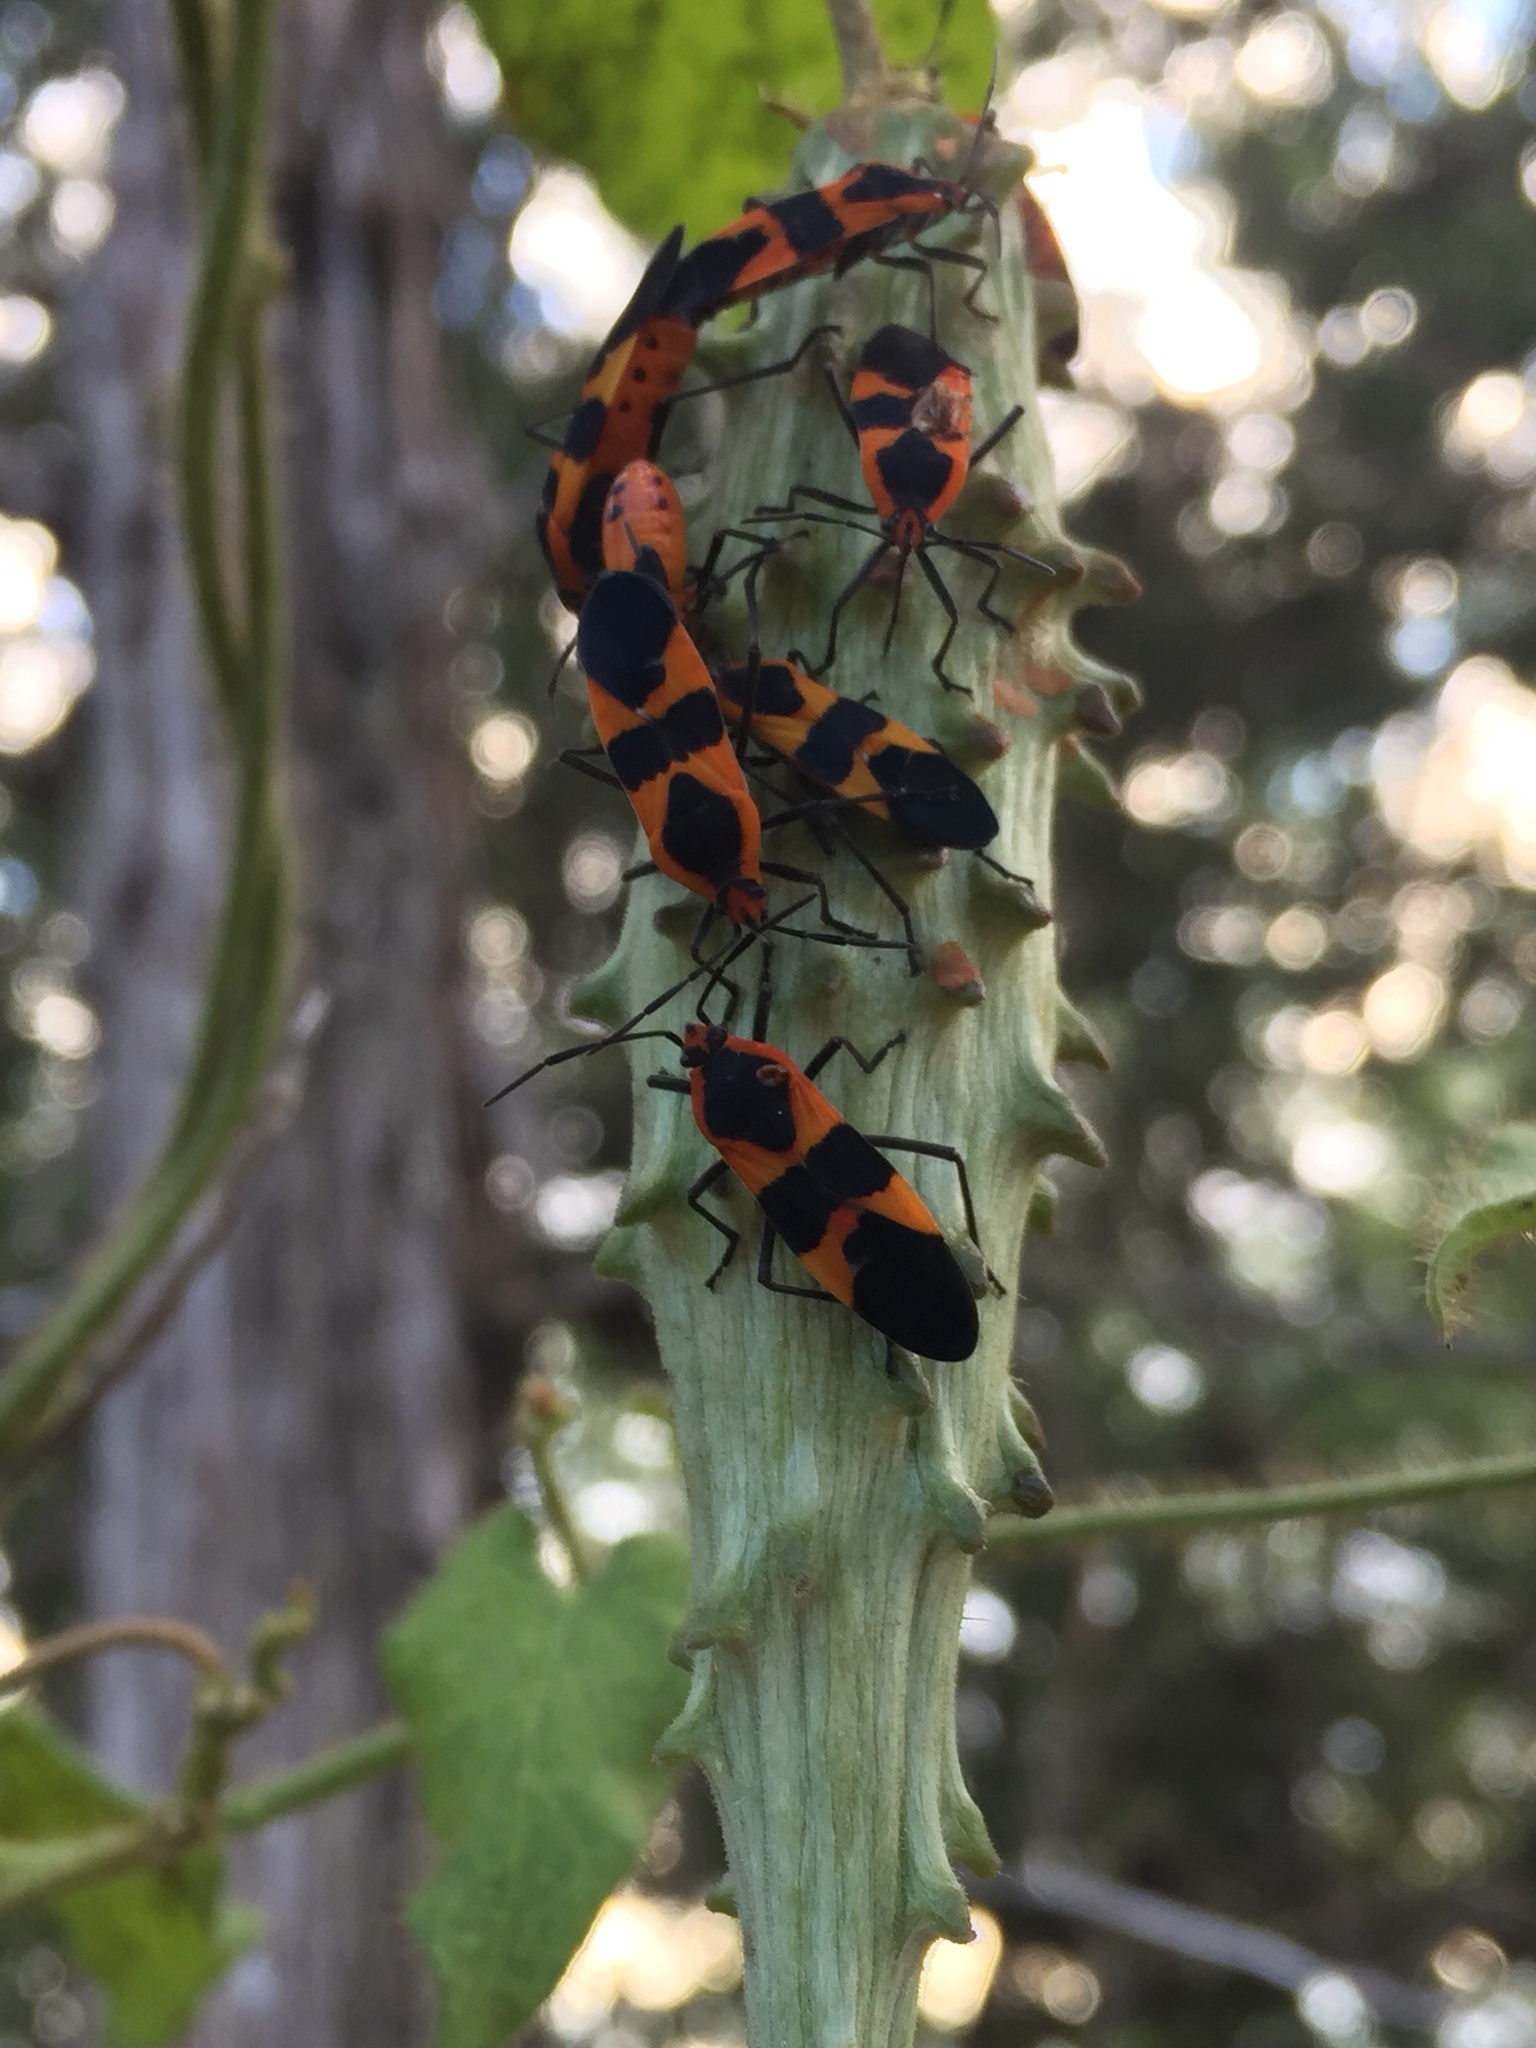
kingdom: Animalia
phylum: Arthropoda
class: Insecta
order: Hemiptera
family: Lygaeidae
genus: Oncopeltus
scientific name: Oncopeltus fasciatus
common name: Large milkweed bug
